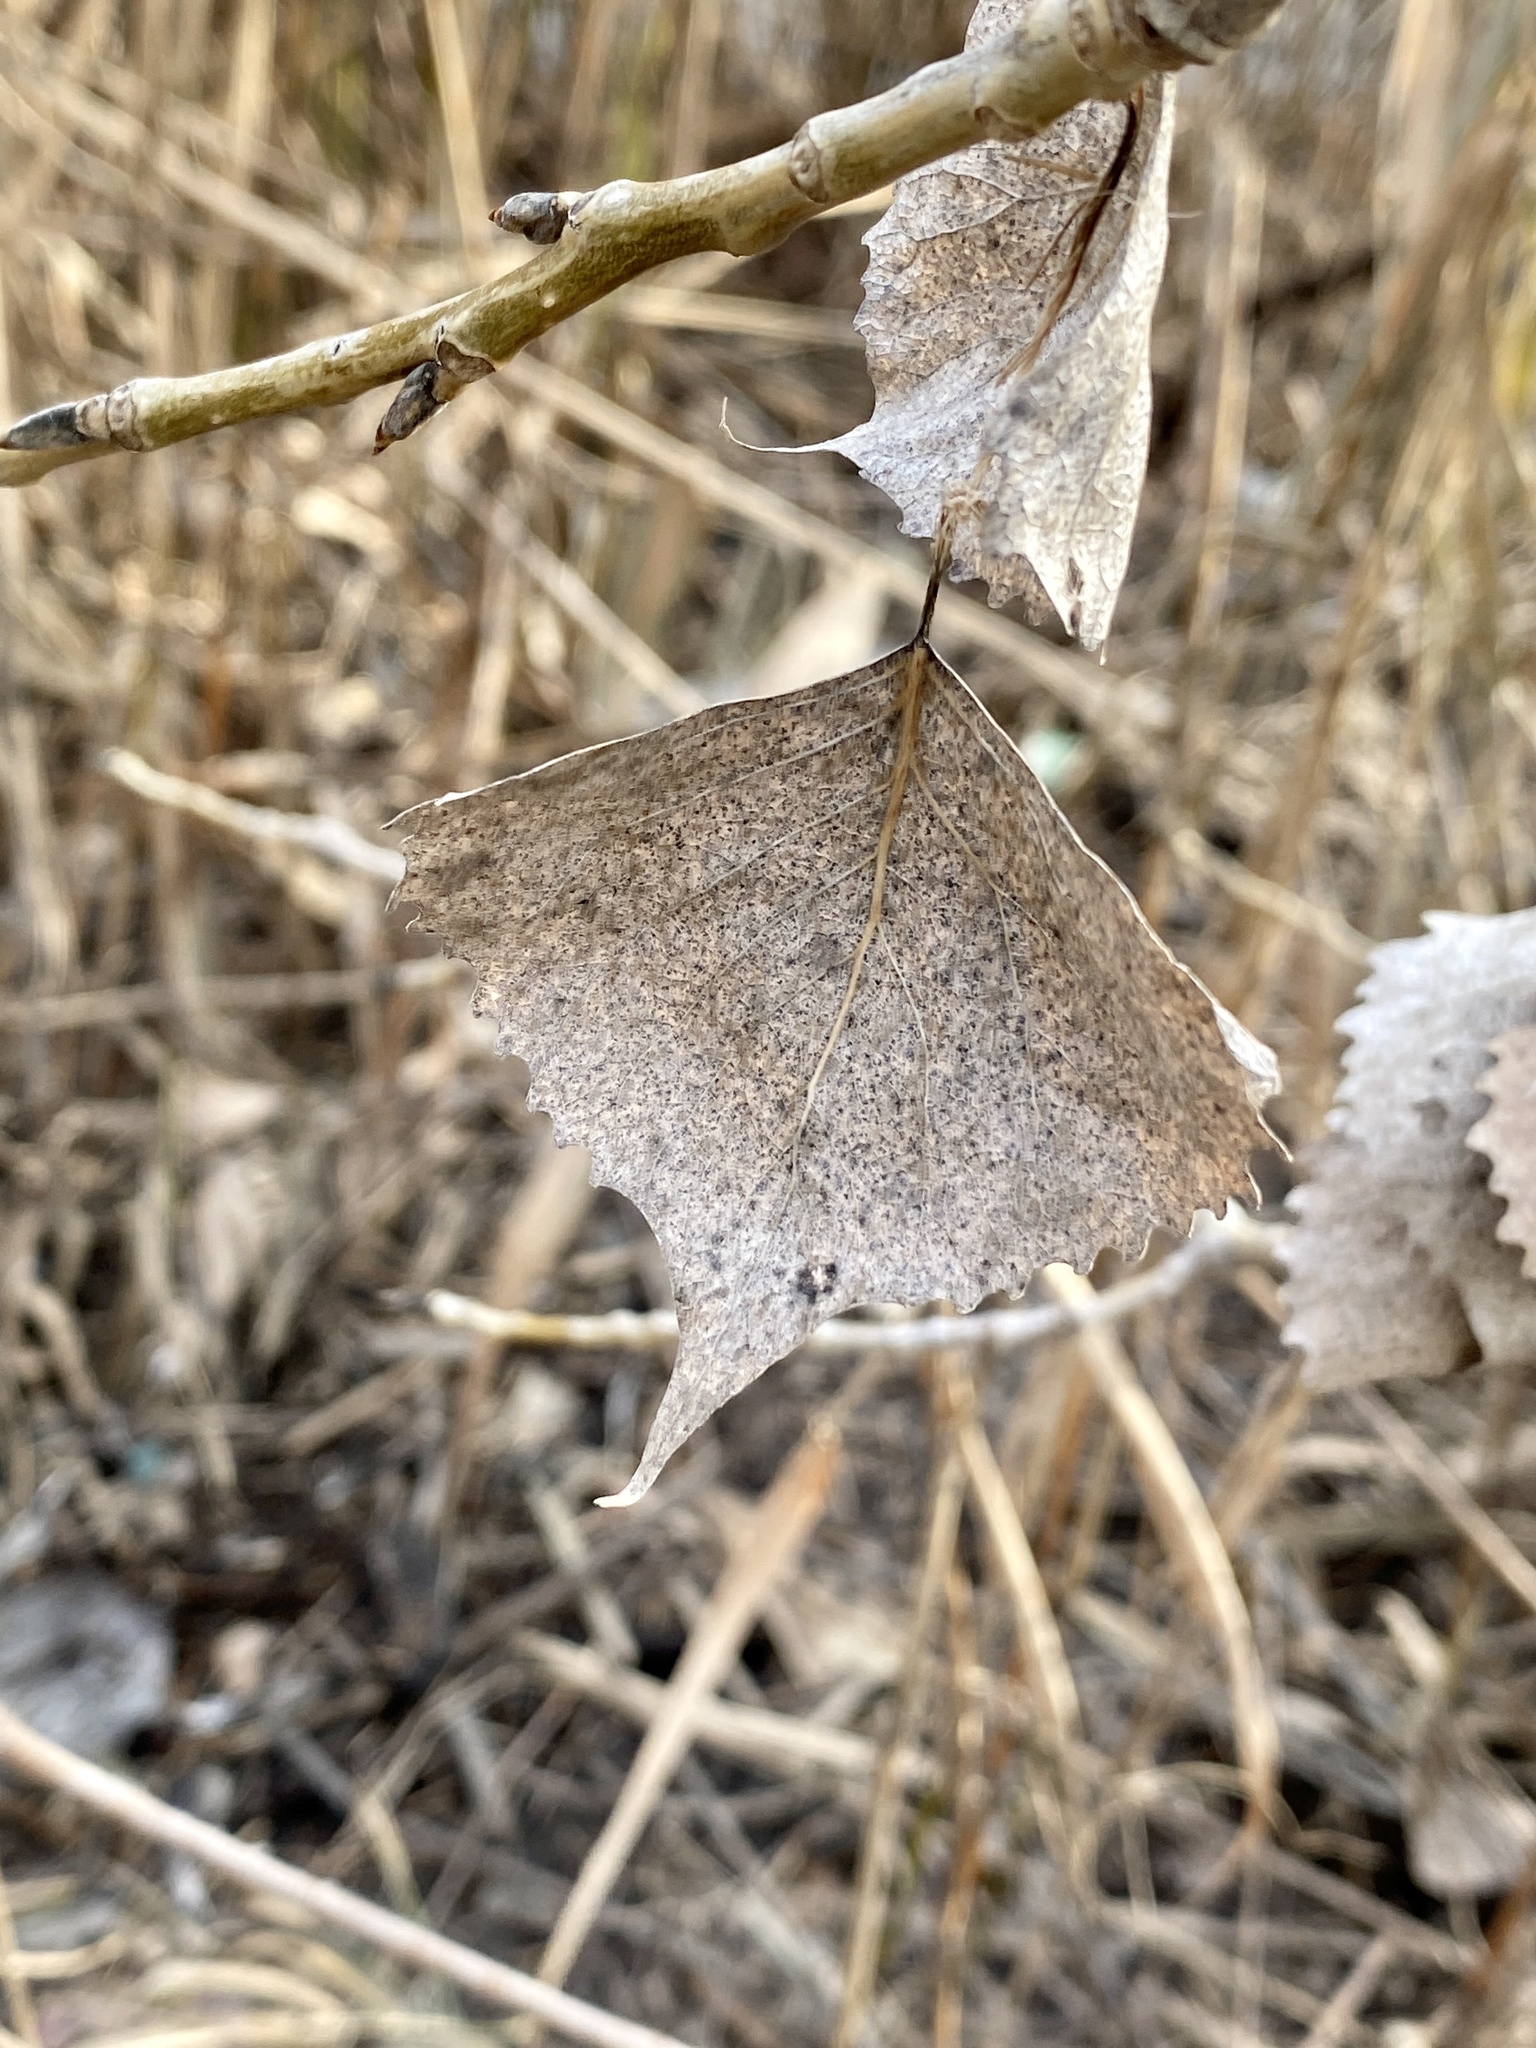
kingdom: Plantae
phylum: Tracheophyta
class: Magnoliopsida
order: Malpighiales
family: Salicaceae
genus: Populus
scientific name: Populus deltoides
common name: Eastern cottonwood
